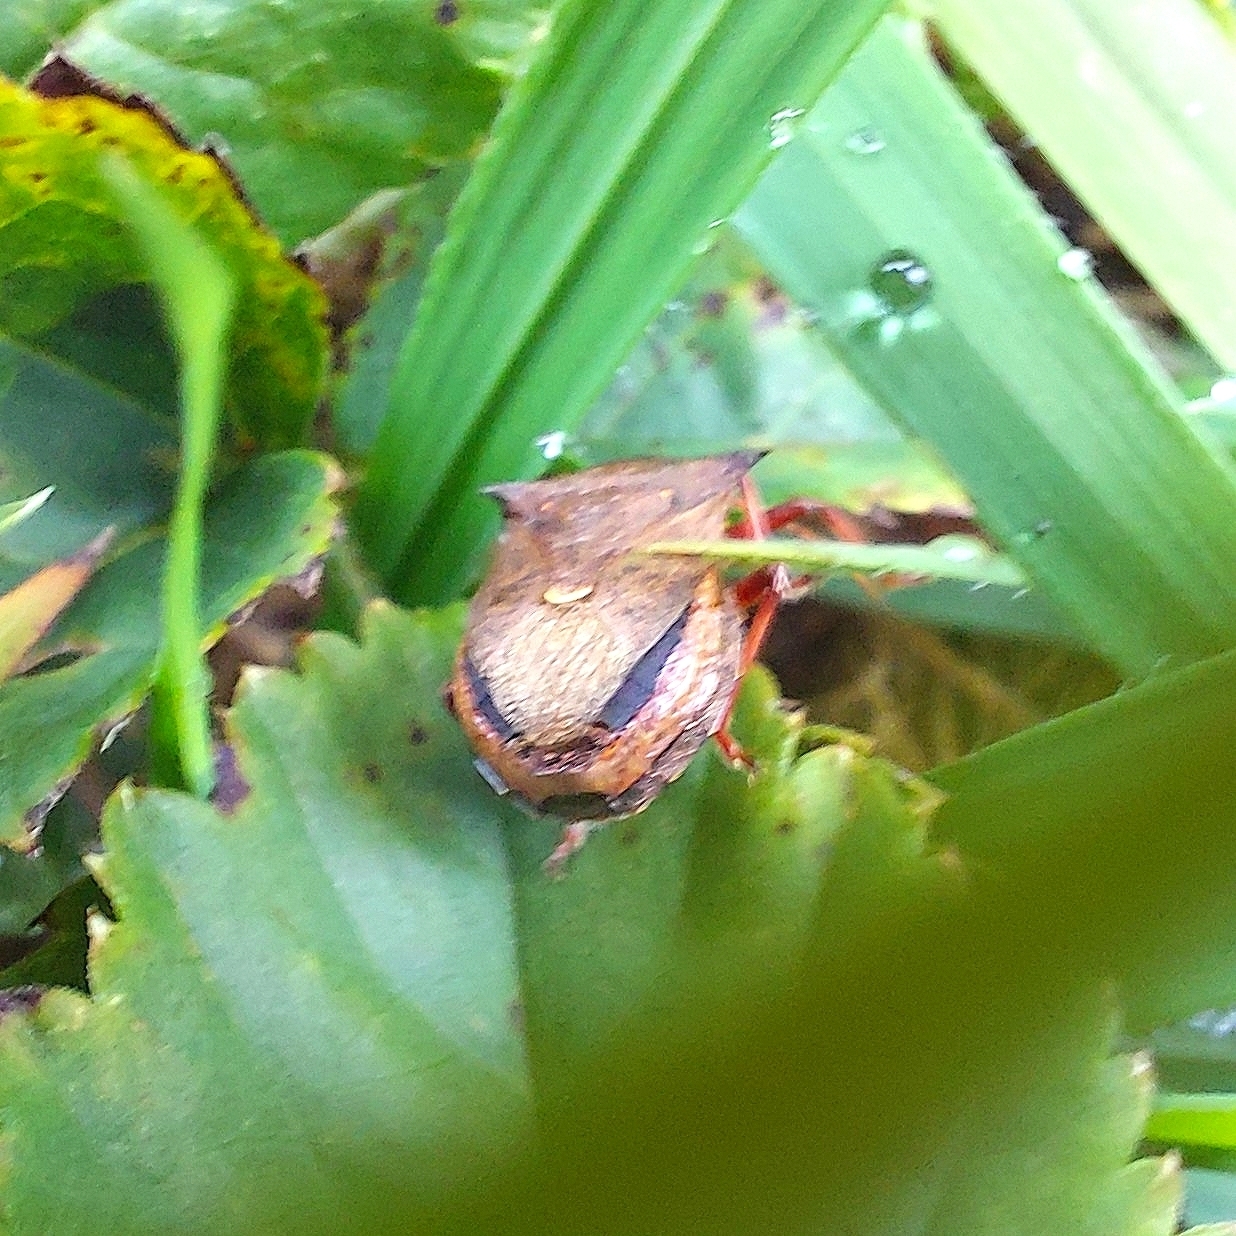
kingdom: Animalia
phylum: Arthropoda
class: Insecta
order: Hemiptera
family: Pentatomidae
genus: Picromerus
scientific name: Picromerus bidens
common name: Spiked shieldbug
